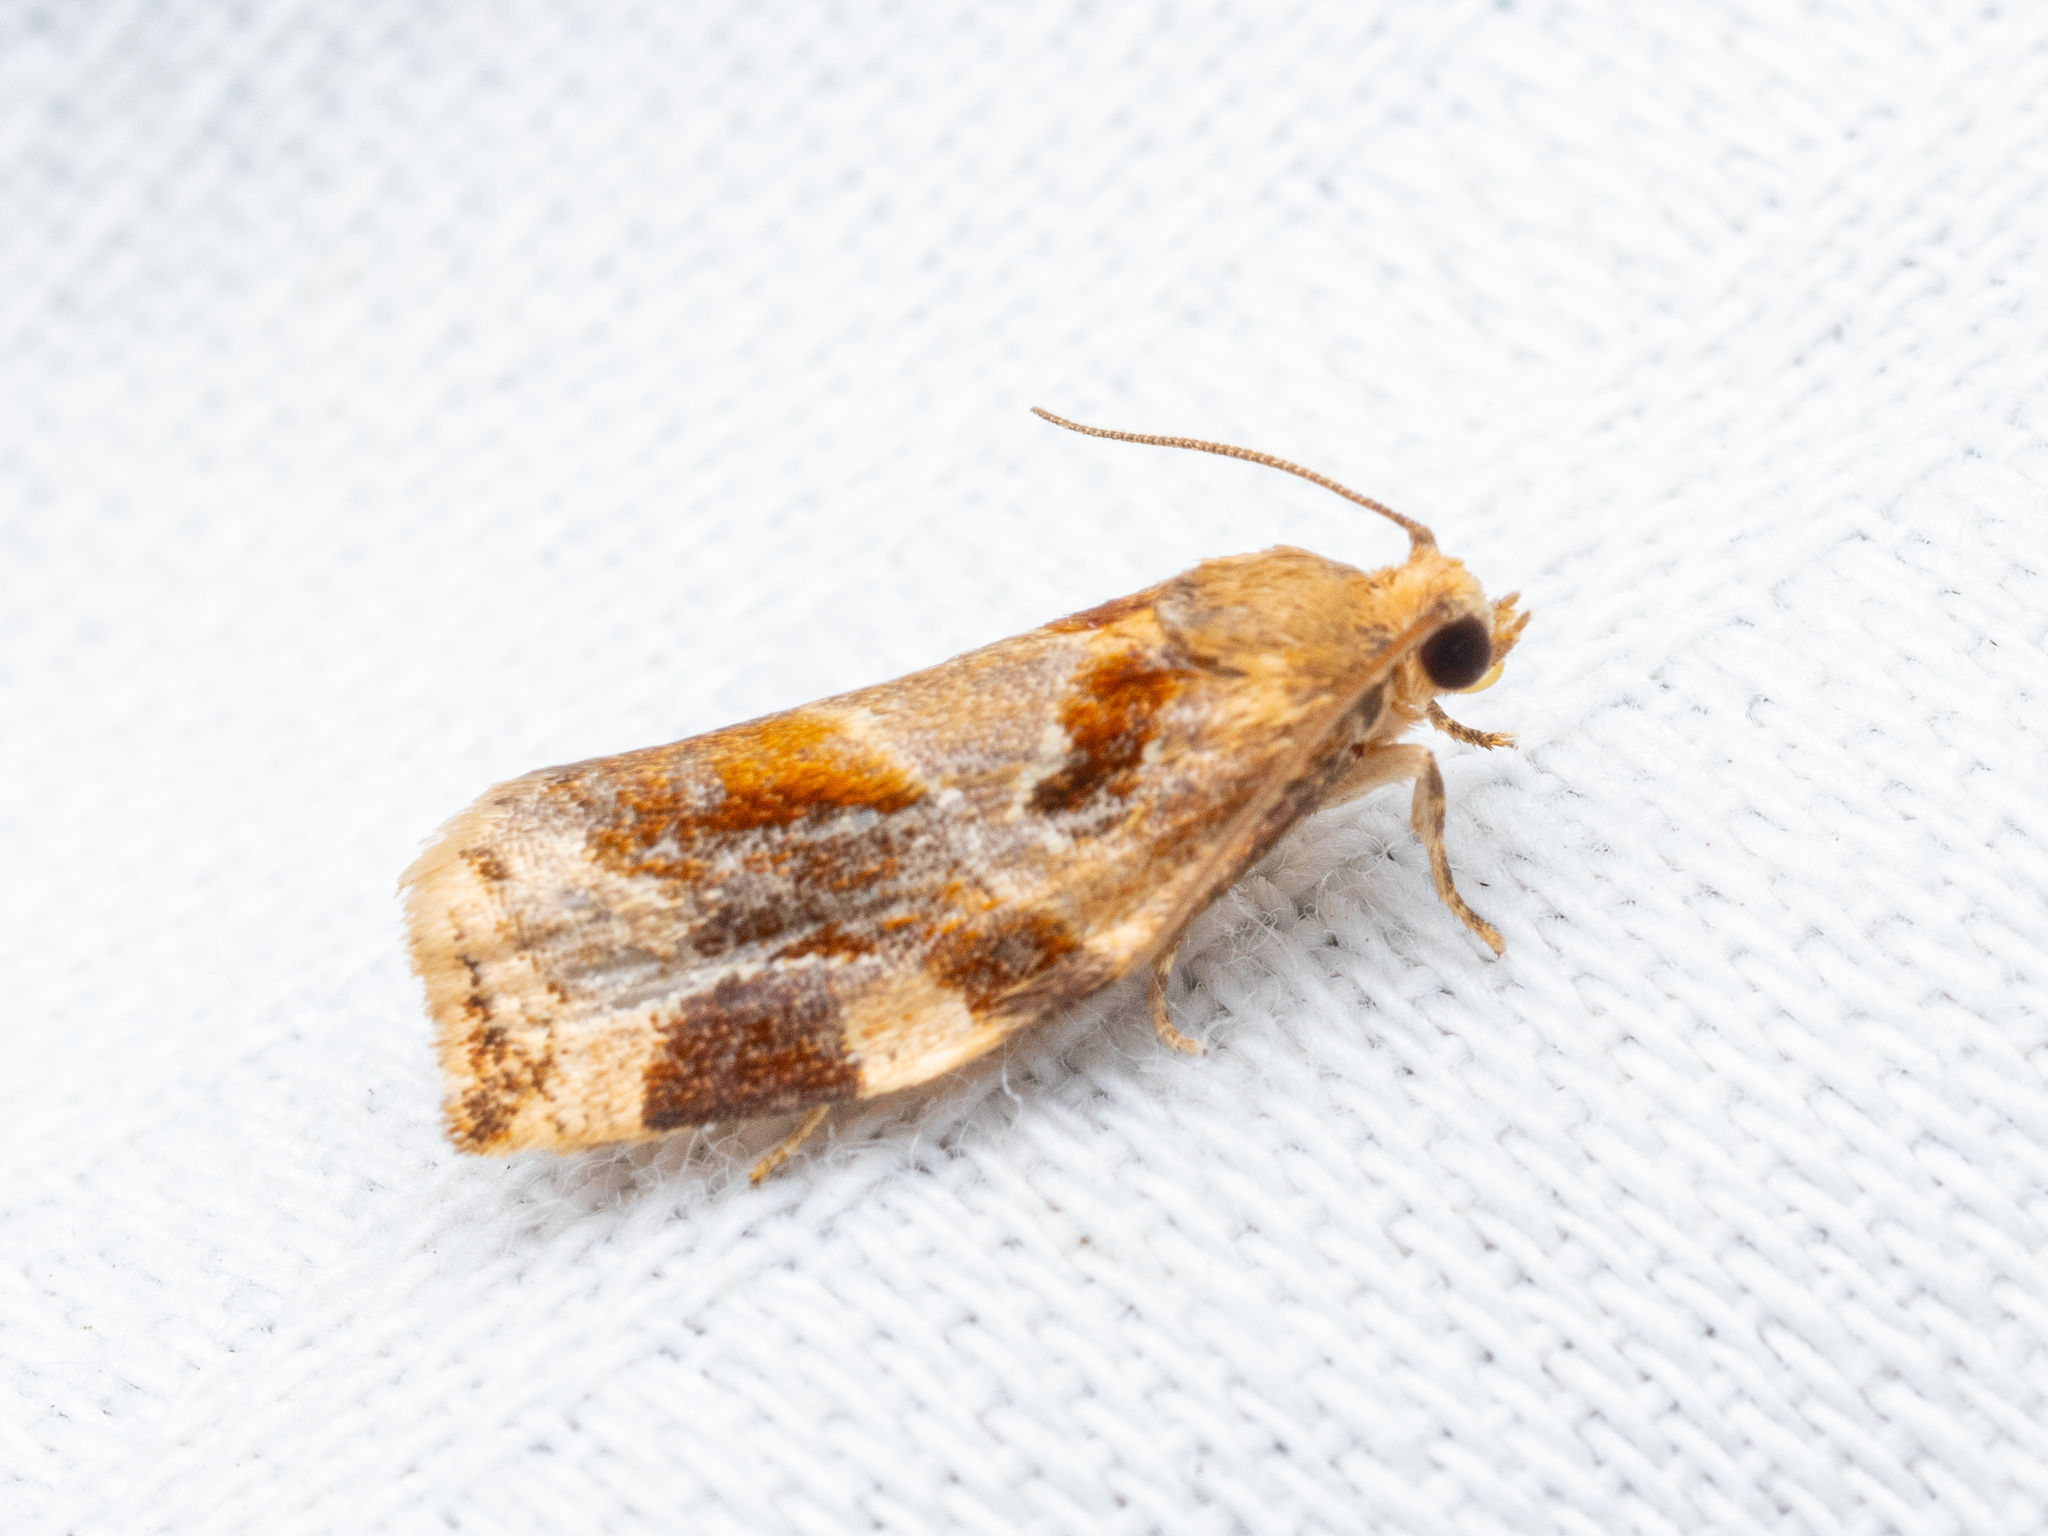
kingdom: Animalia
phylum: Arthropoda
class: Insecta
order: Lepidoptera
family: Tortricidae
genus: Archips
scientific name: Archips xylosteana
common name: Variegated golden tortrix
